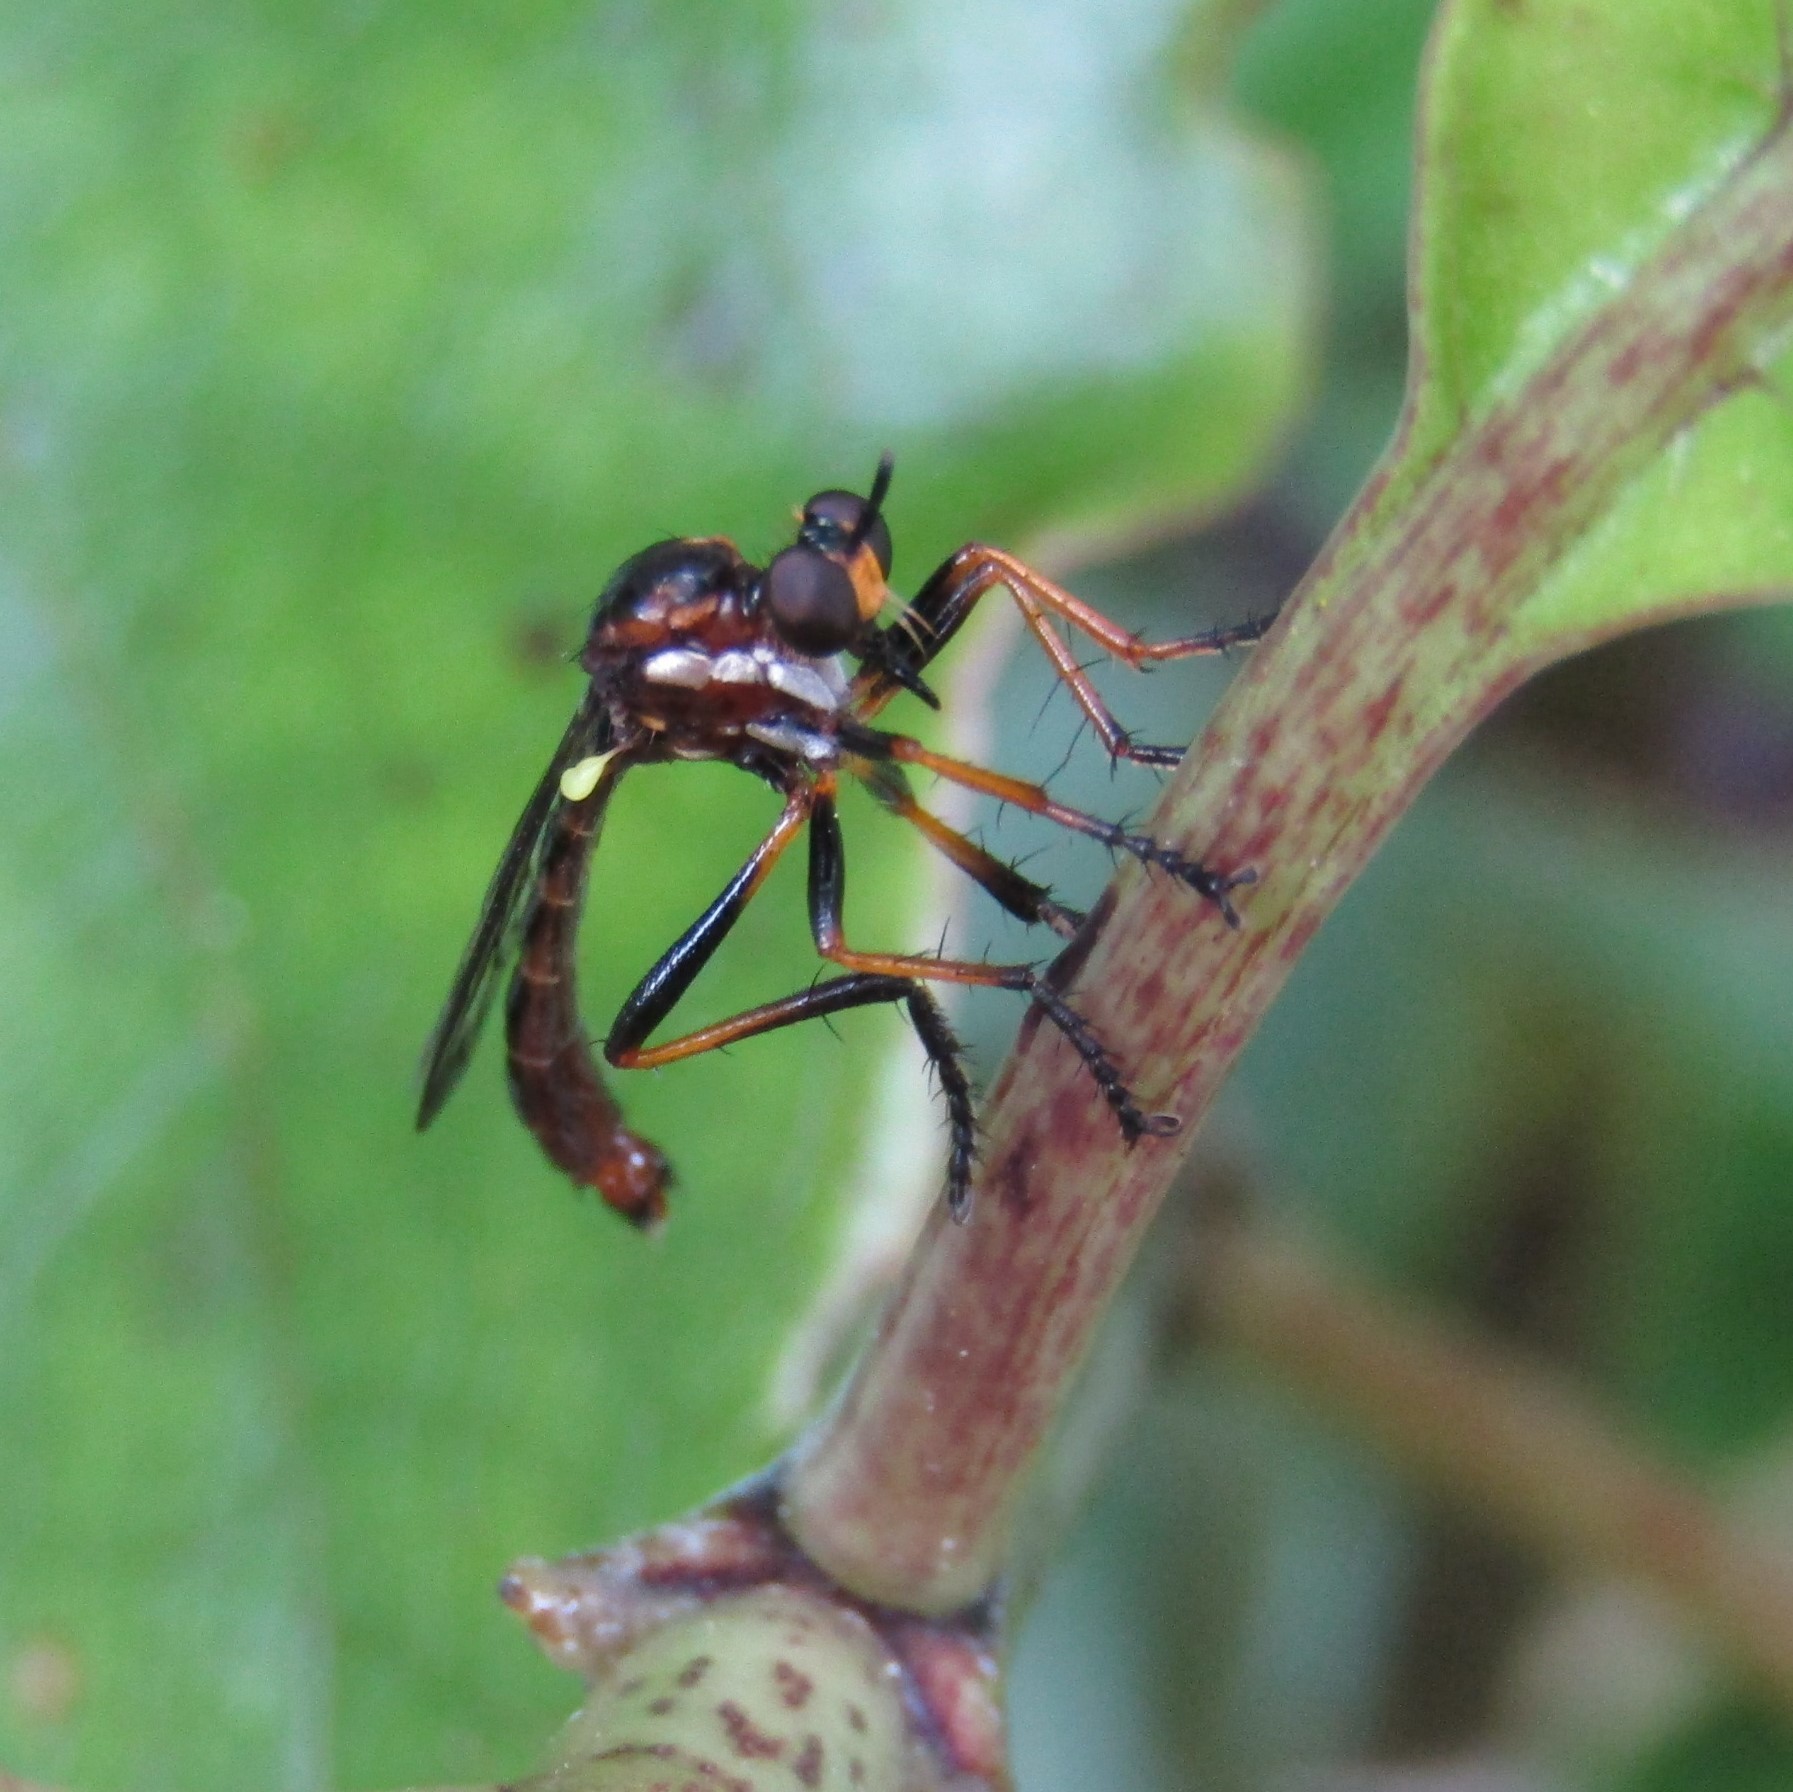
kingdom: Animalia
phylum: Arthropoda
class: Insecta
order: Diptera
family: Asilidae
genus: Saropogon
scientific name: Saropogon antipodus
